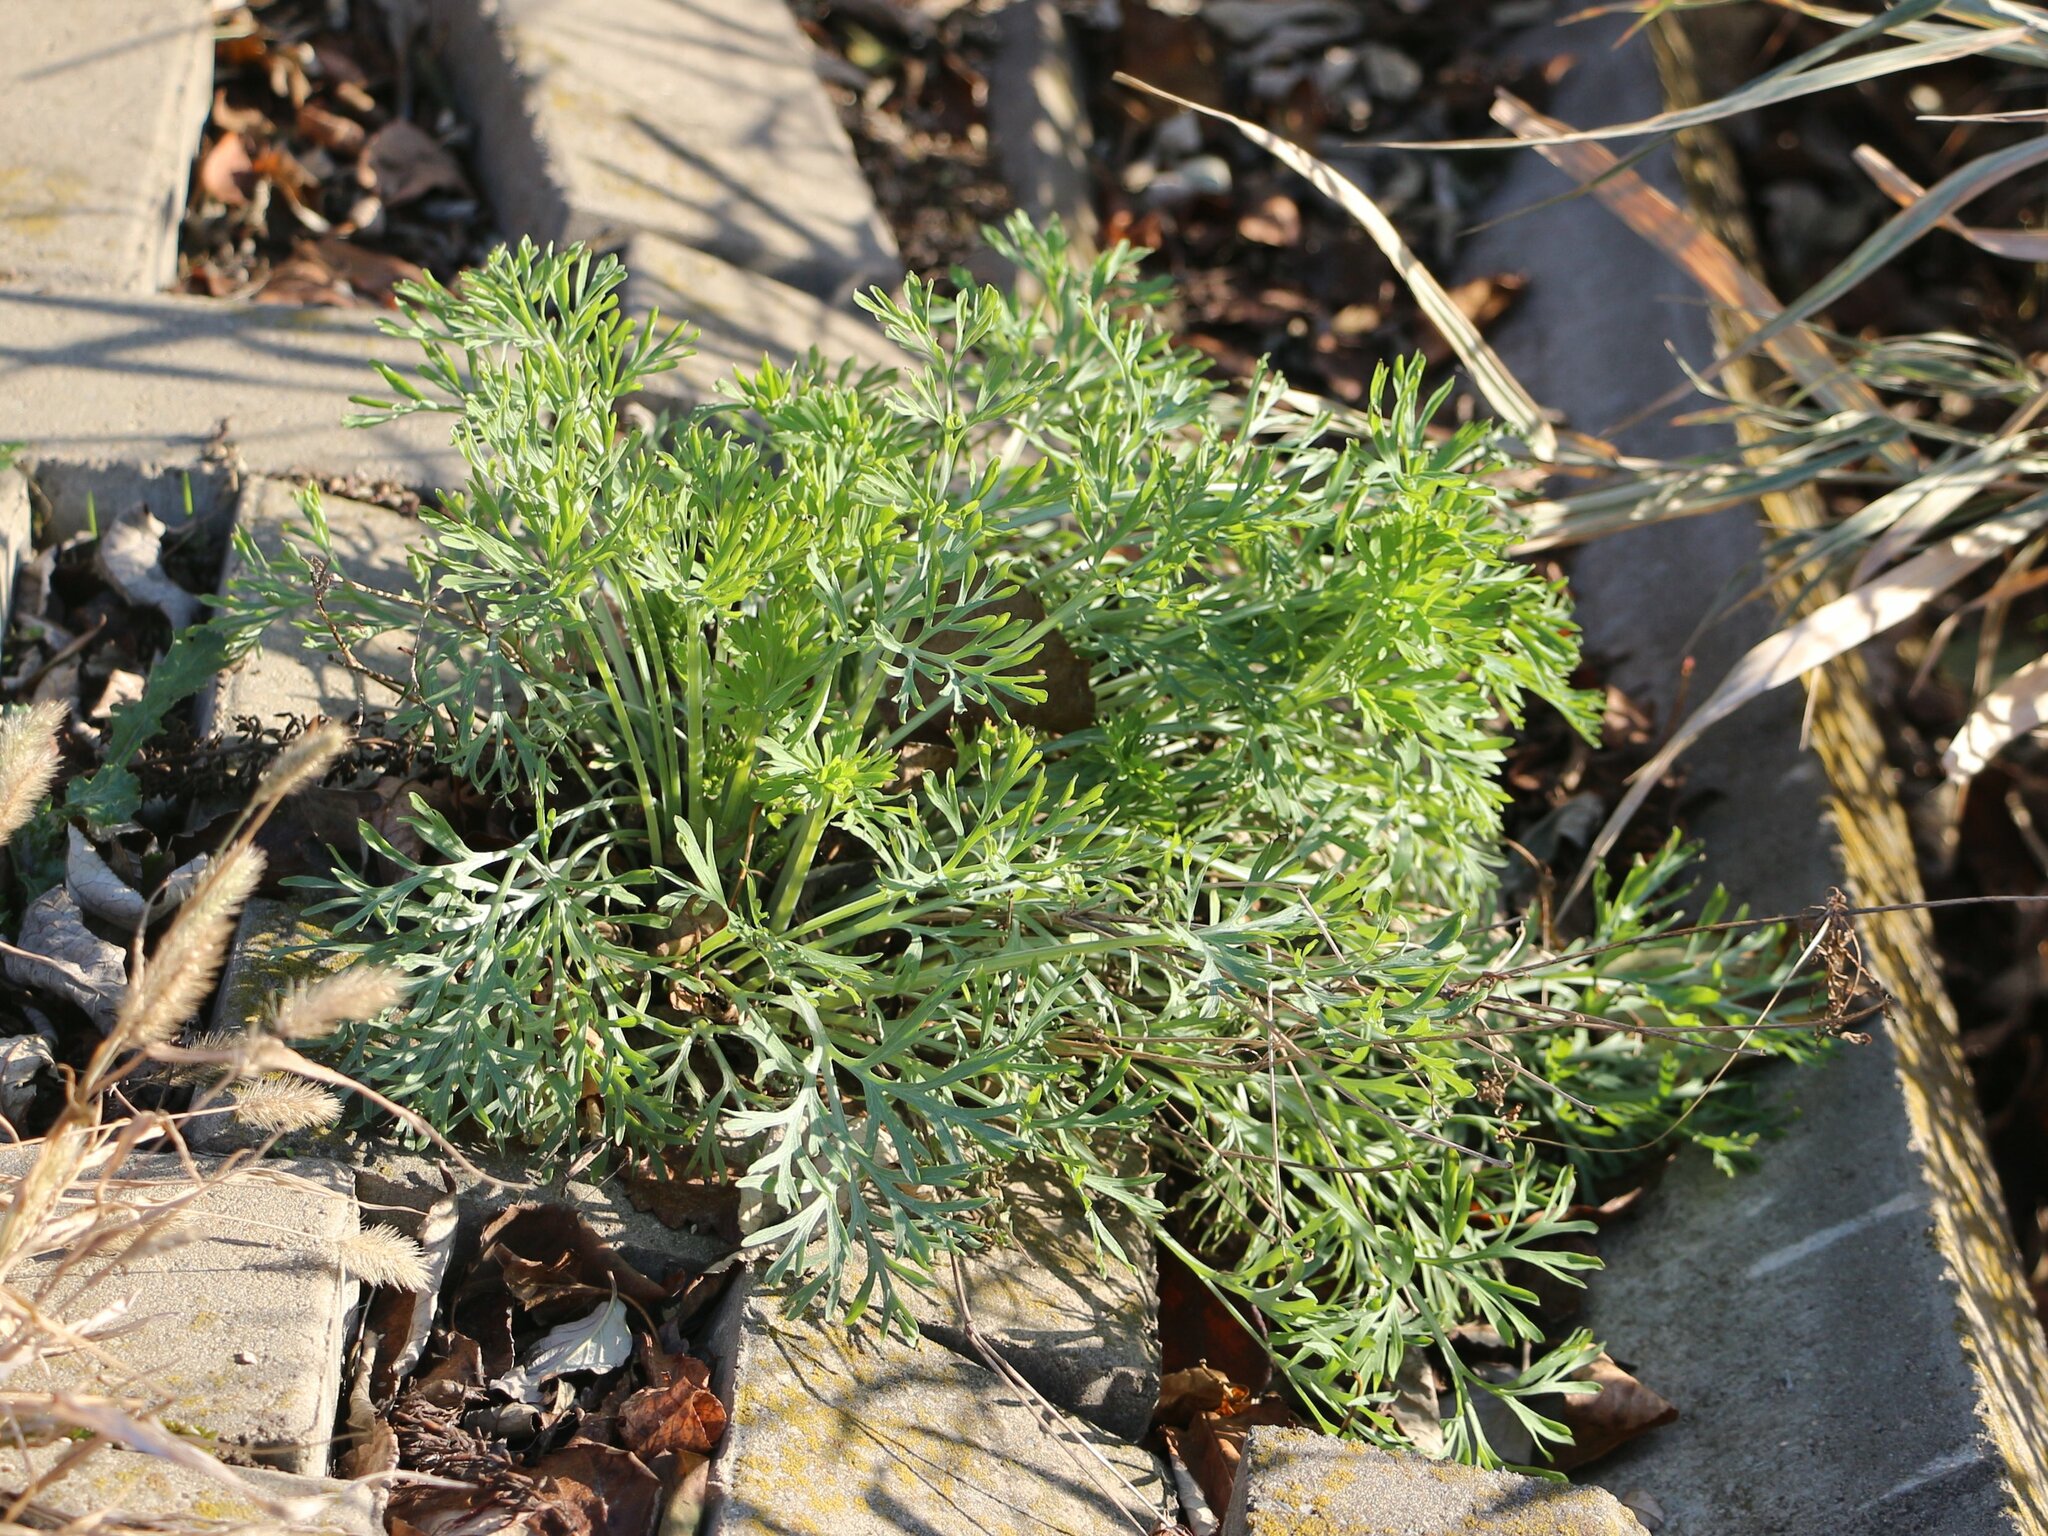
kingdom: Plantae
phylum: Tracheophyta
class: Magnoliopsida
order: Ranunculales
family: Papaveraceae
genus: Eschscholzia
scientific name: Eschscholzia californica
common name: California poppy
